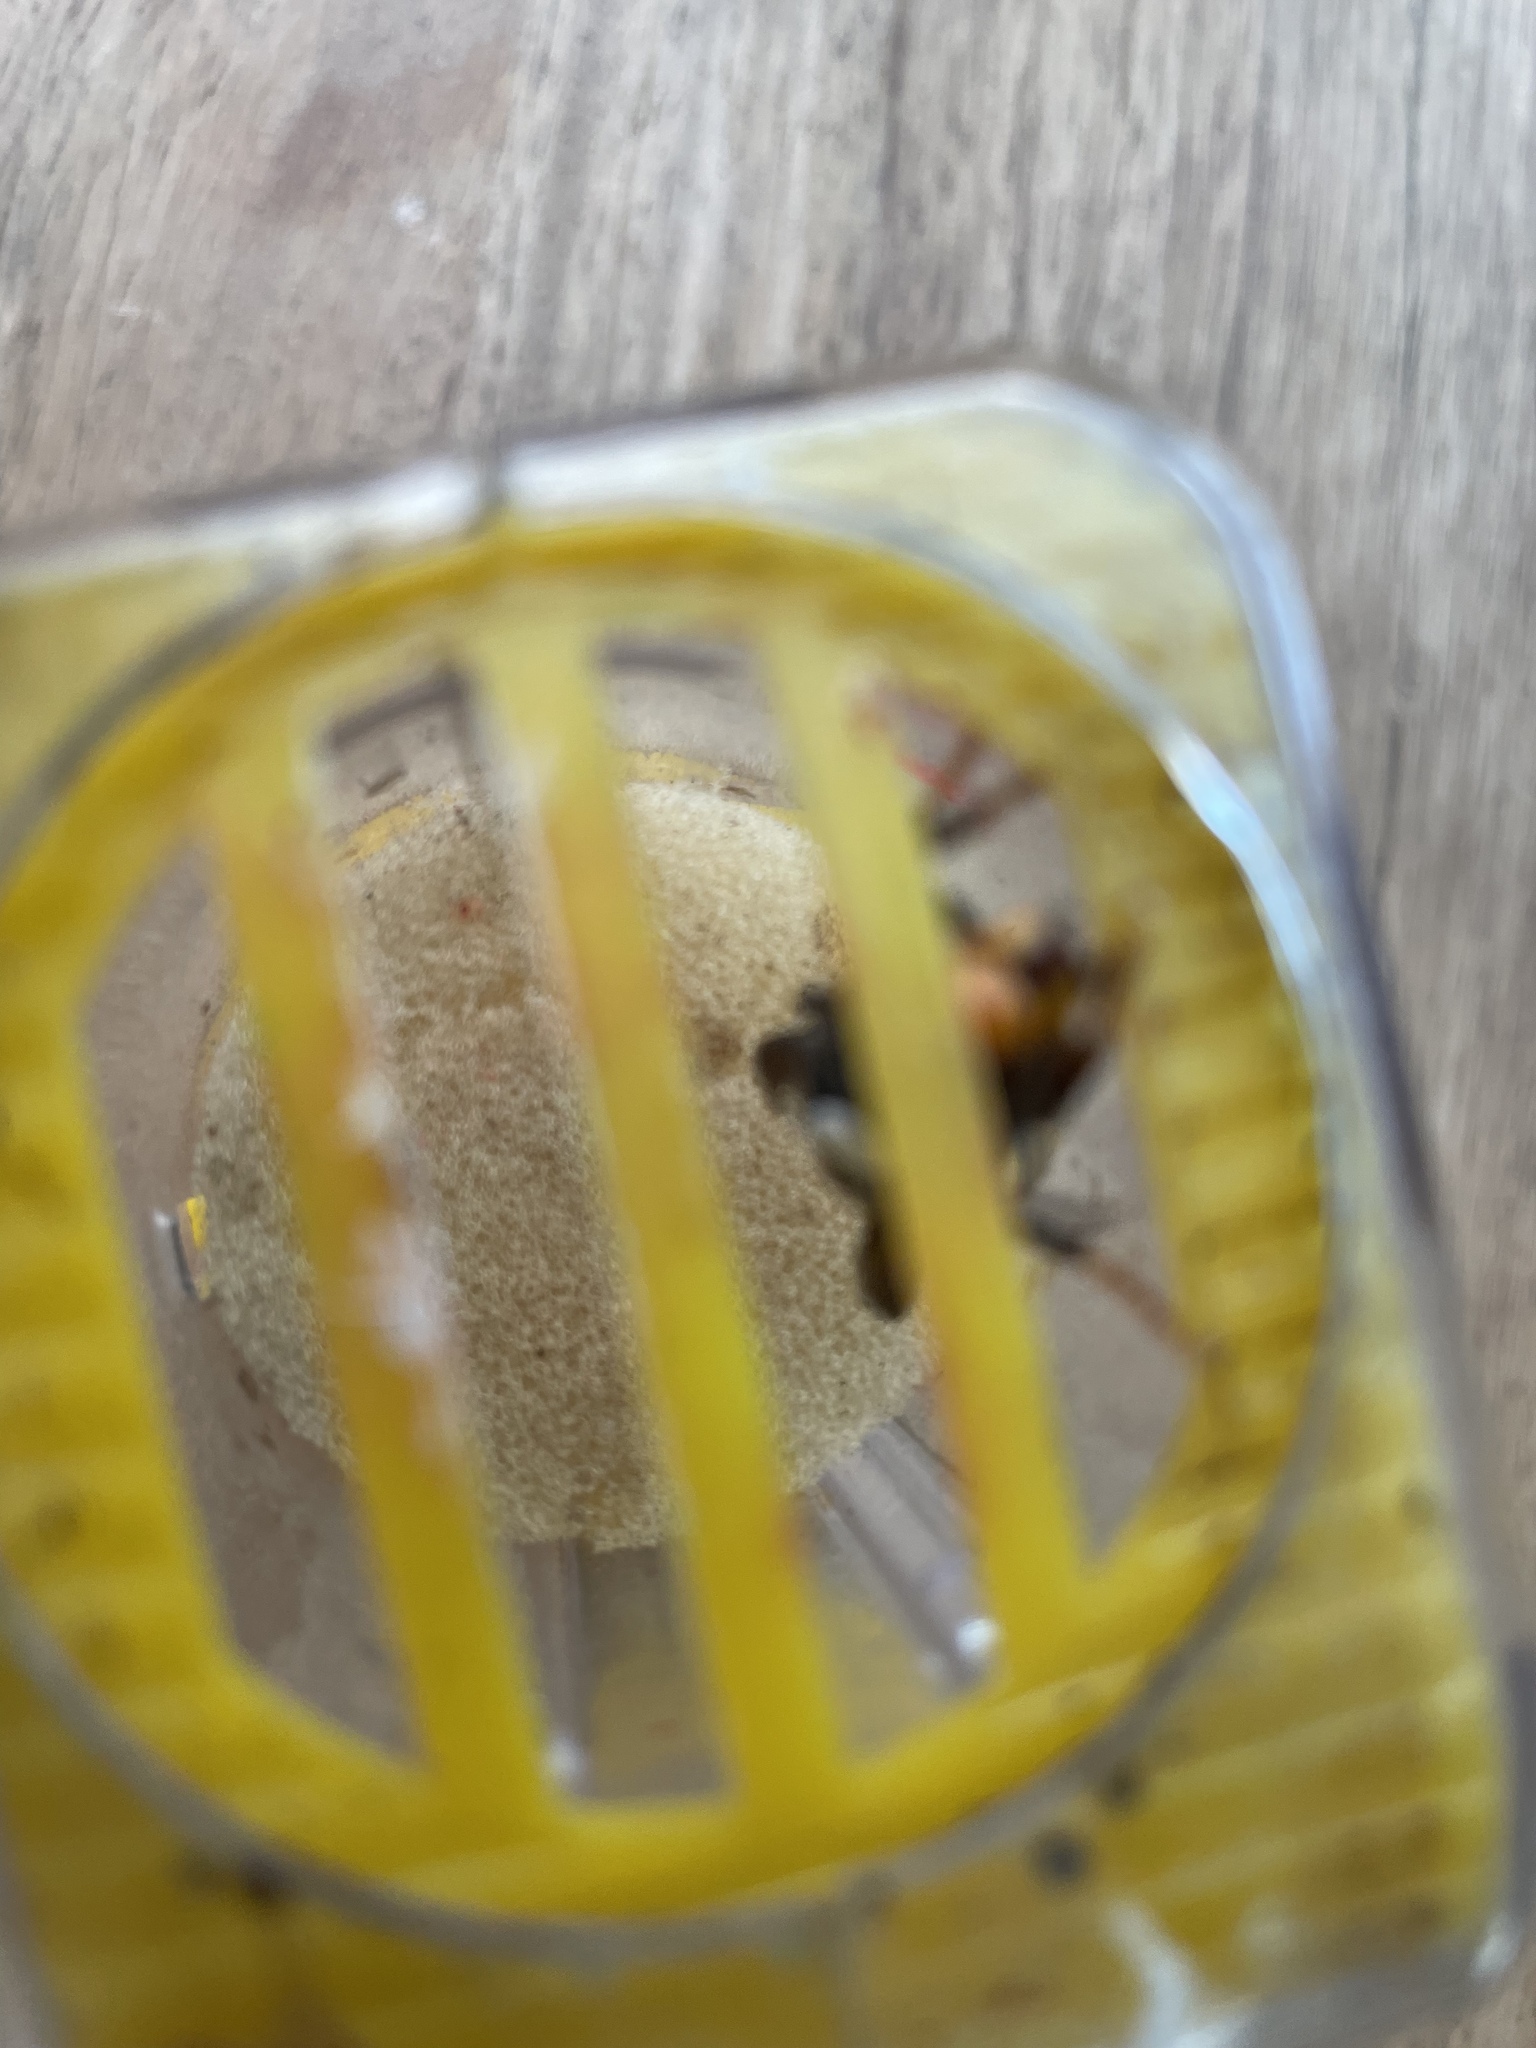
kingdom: Animalia
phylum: Arthropoda
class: Insecta
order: Hymenoptera
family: Vespidae
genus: Vespa
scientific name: Vespa velutina
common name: Asian hornet
